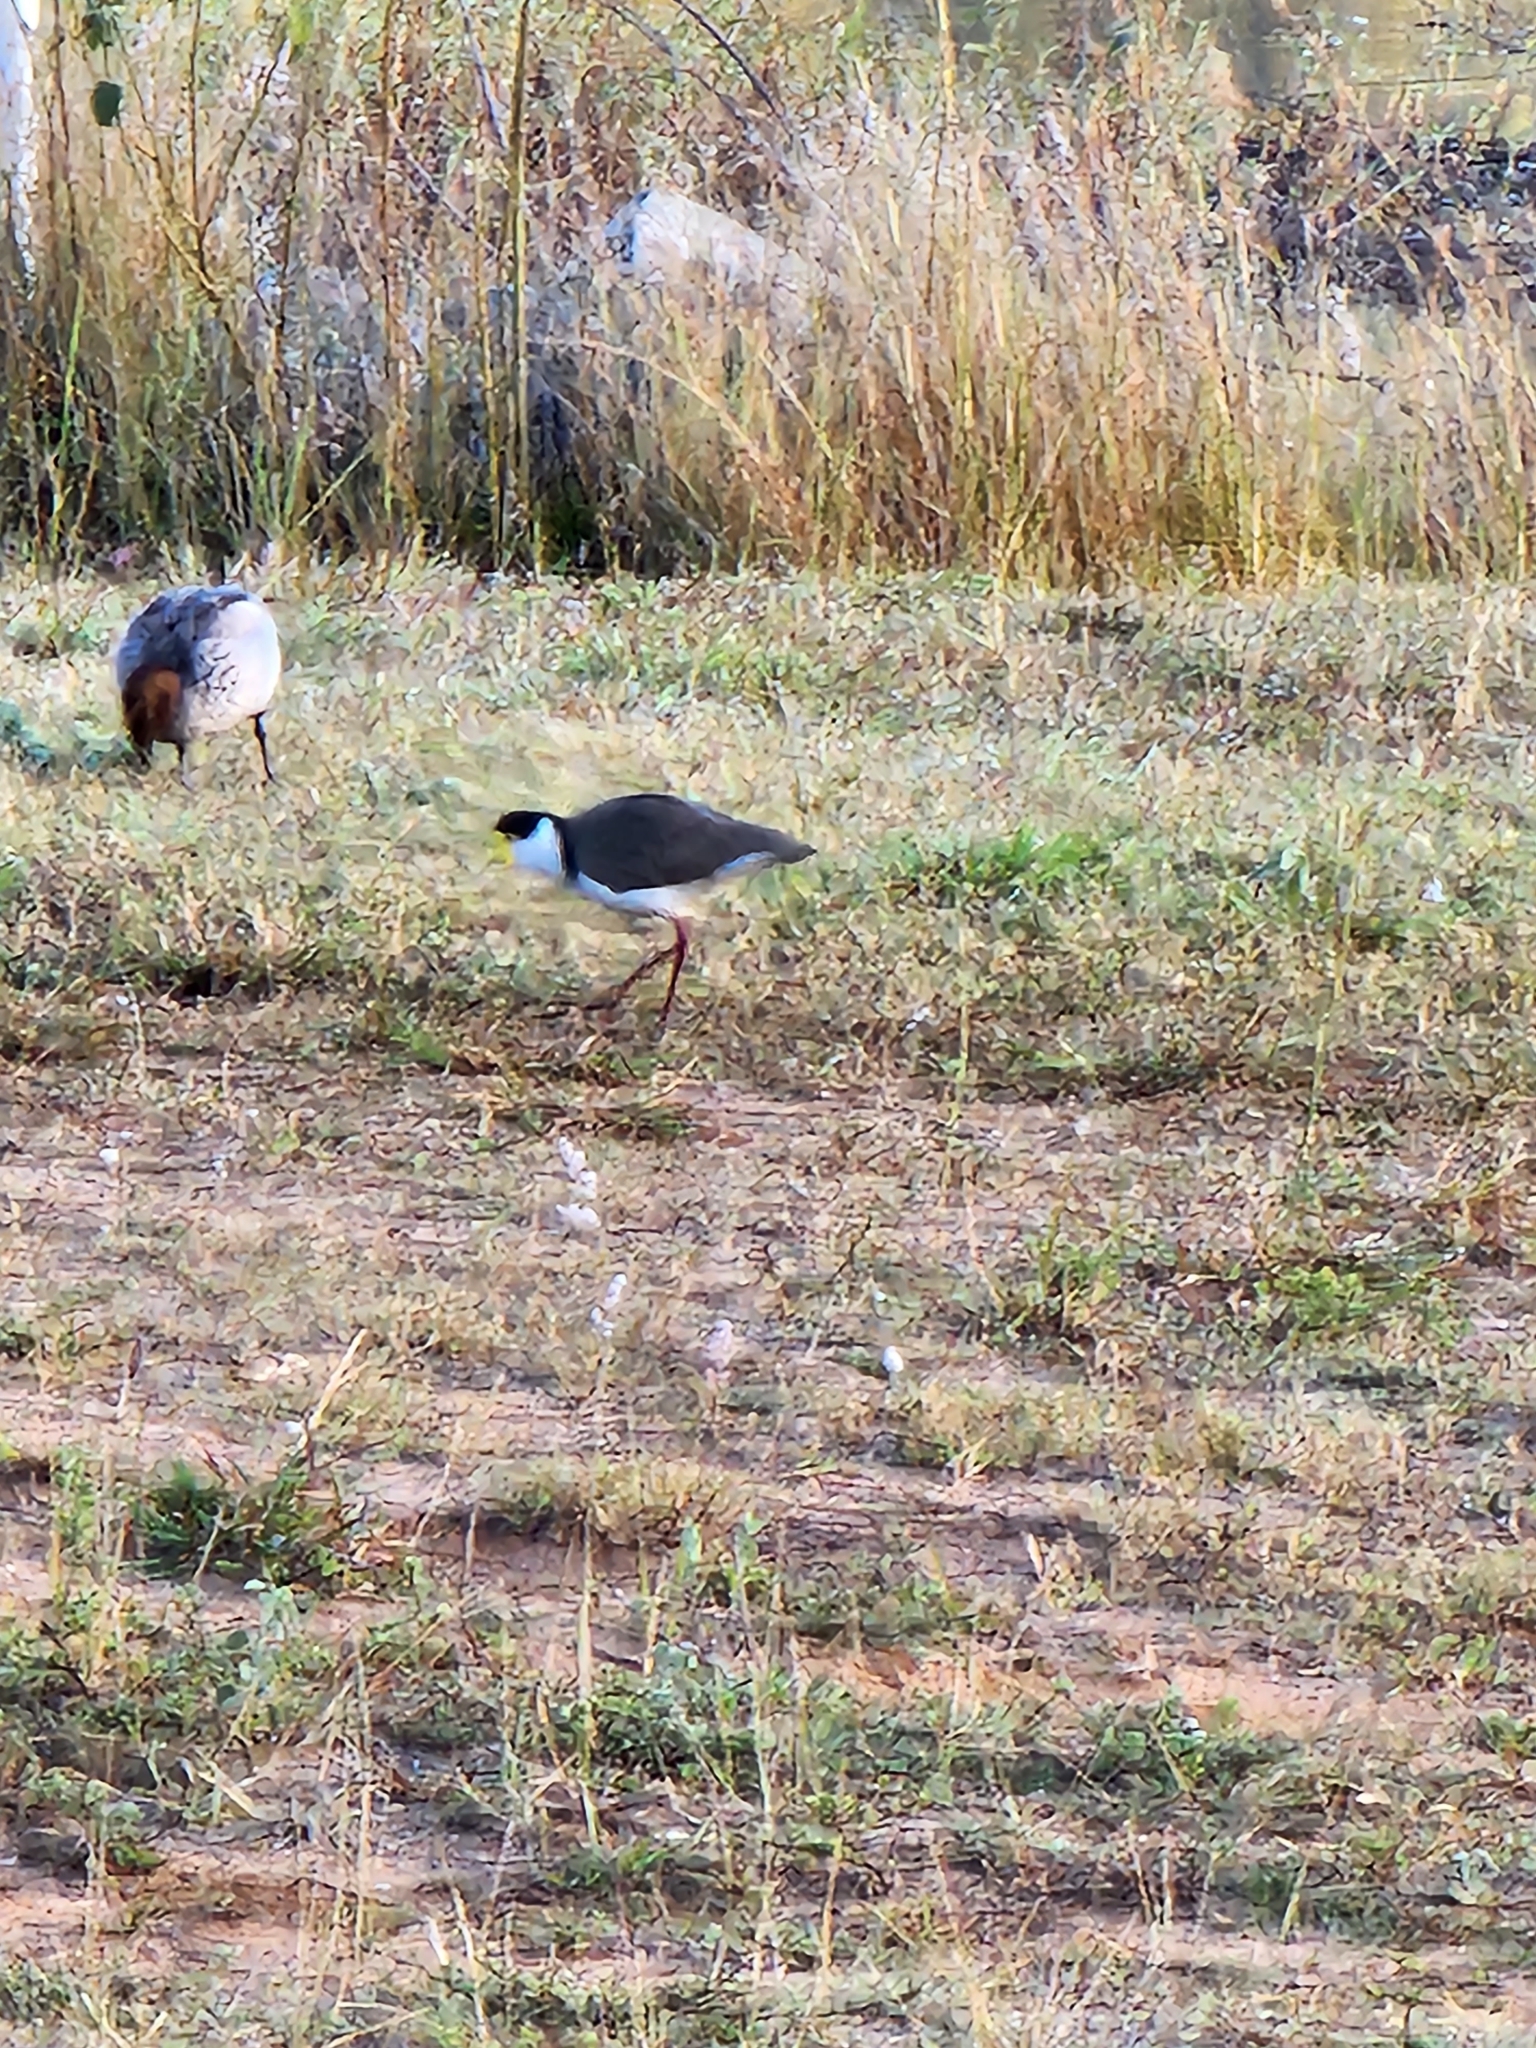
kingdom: Animalia
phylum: Chordata
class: Aves
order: Charadriiformes
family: Charadriidae
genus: Vanellus
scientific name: Vanellus miles
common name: Masked lapwing
